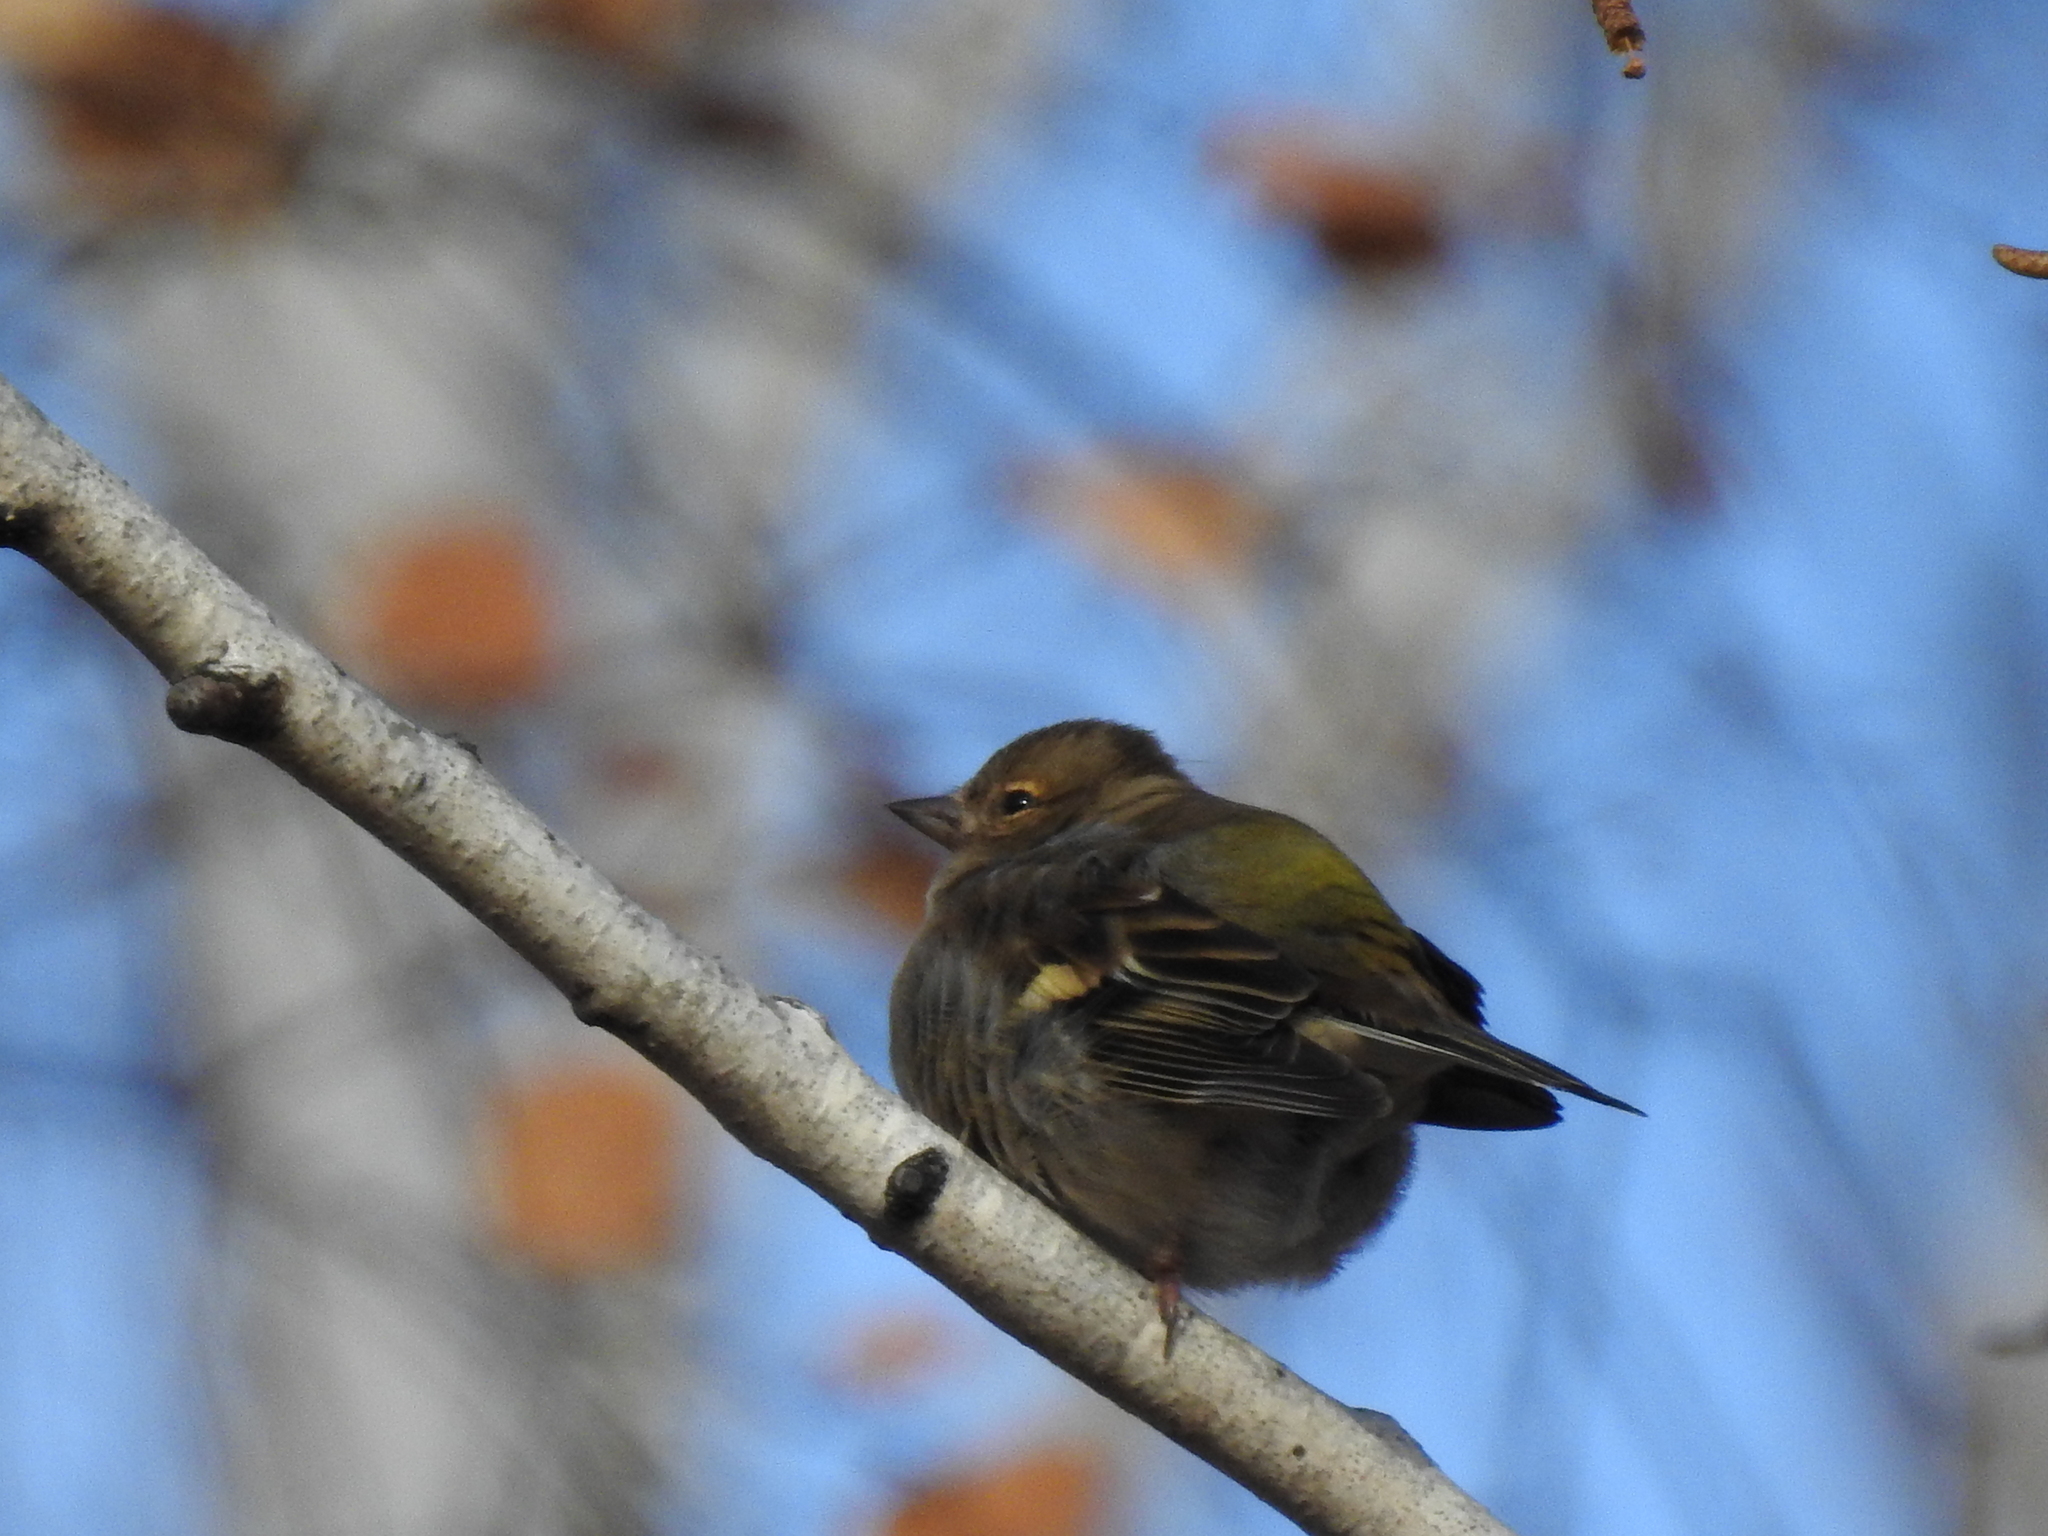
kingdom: Animalia
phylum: Chordata
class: Aves
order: Passeriformes
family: Fringillidae
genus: Fringilla
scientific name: Fringilla coelebs
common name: Common chaffinch
